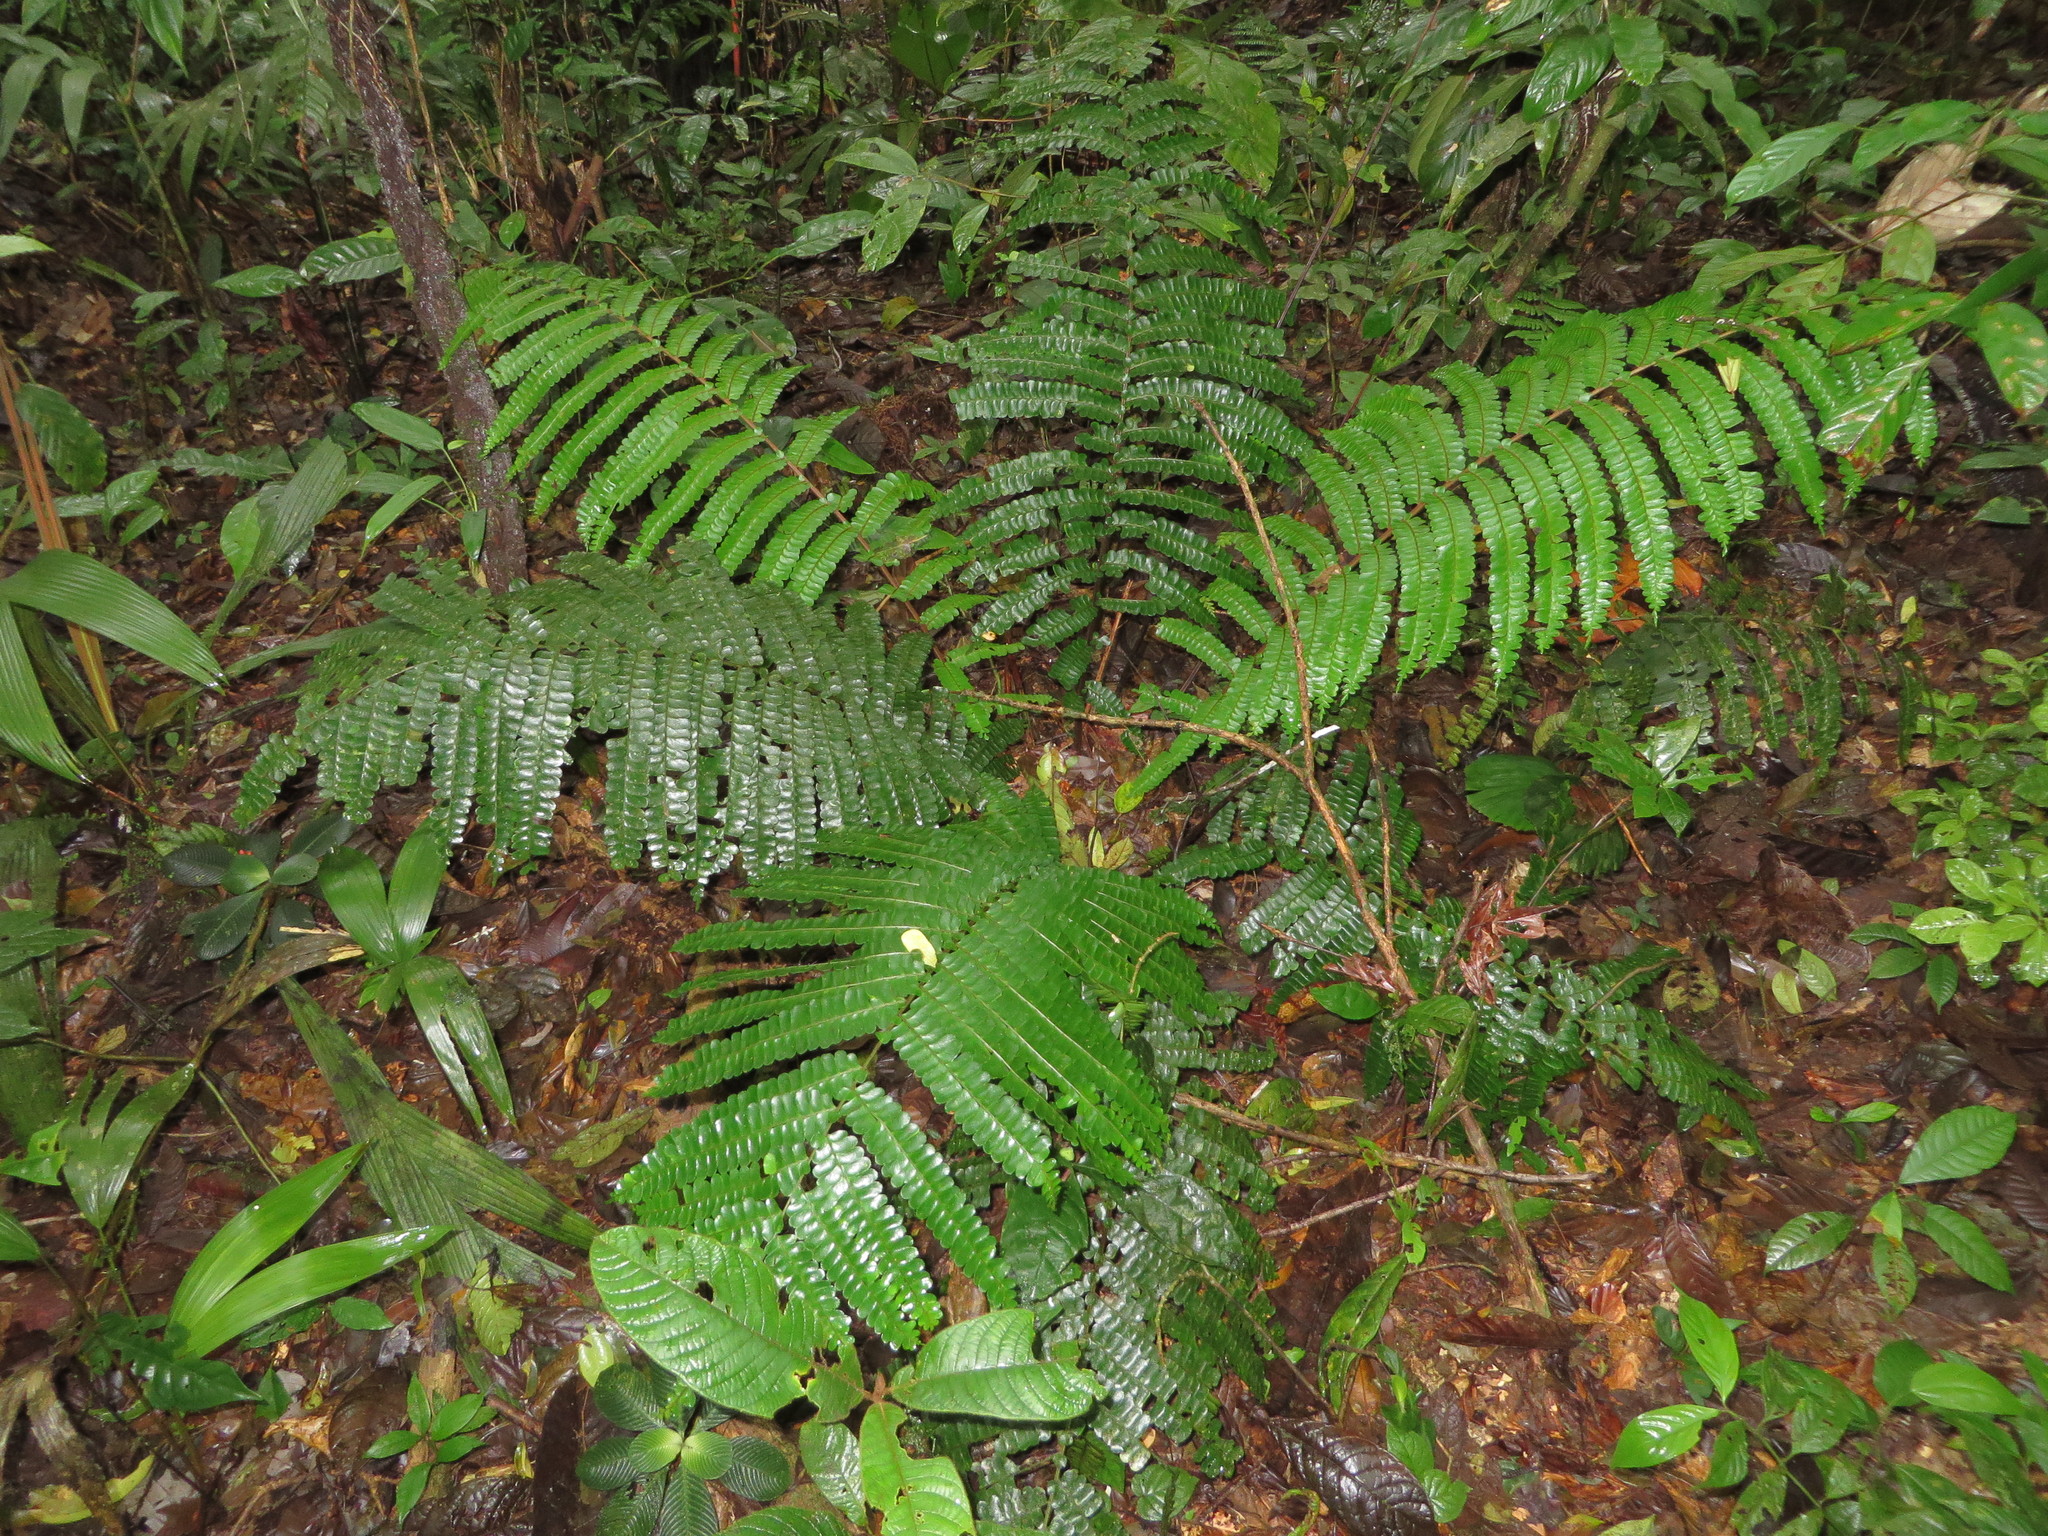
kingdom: Plantae
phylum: Tracheophyta
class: Polypodiopsida
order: Polypodiales
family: Didymochlaenaceae
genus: Didymochlaena
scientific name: Didymochlaena truncatula
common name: Mahogany fern
